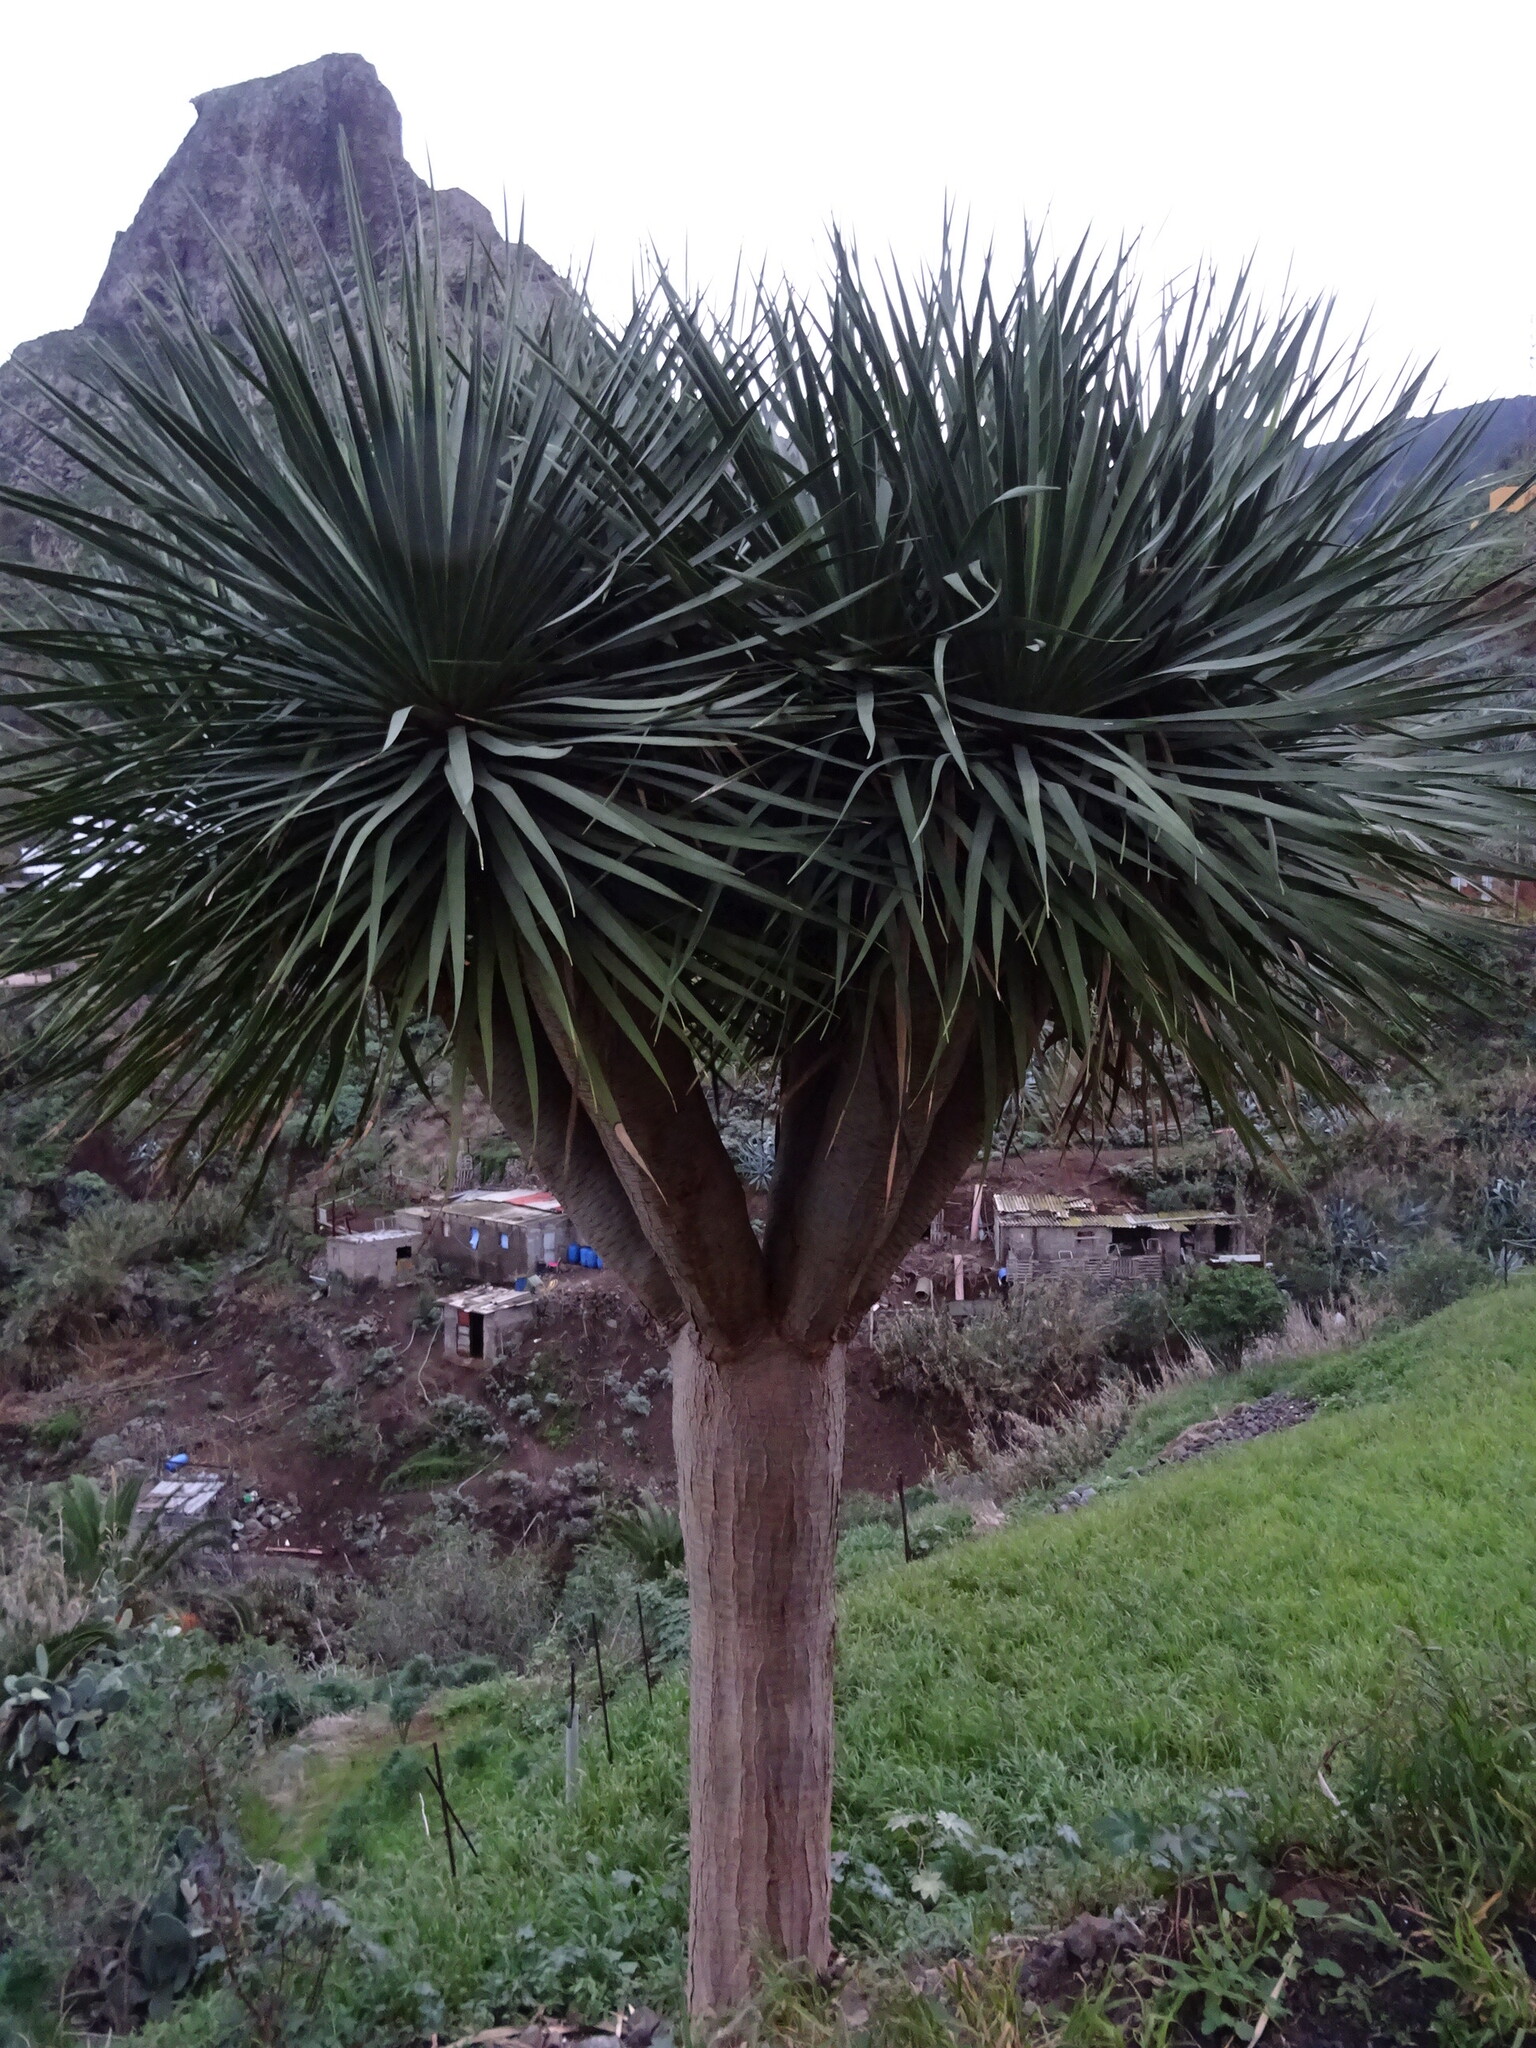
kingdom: Plantae
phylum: Tracheophyta
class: Liliopsida
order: Asparagales
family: Asparagaceae
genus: Dracaena
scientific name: Dracaena draco
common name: Canary island dragon tree
